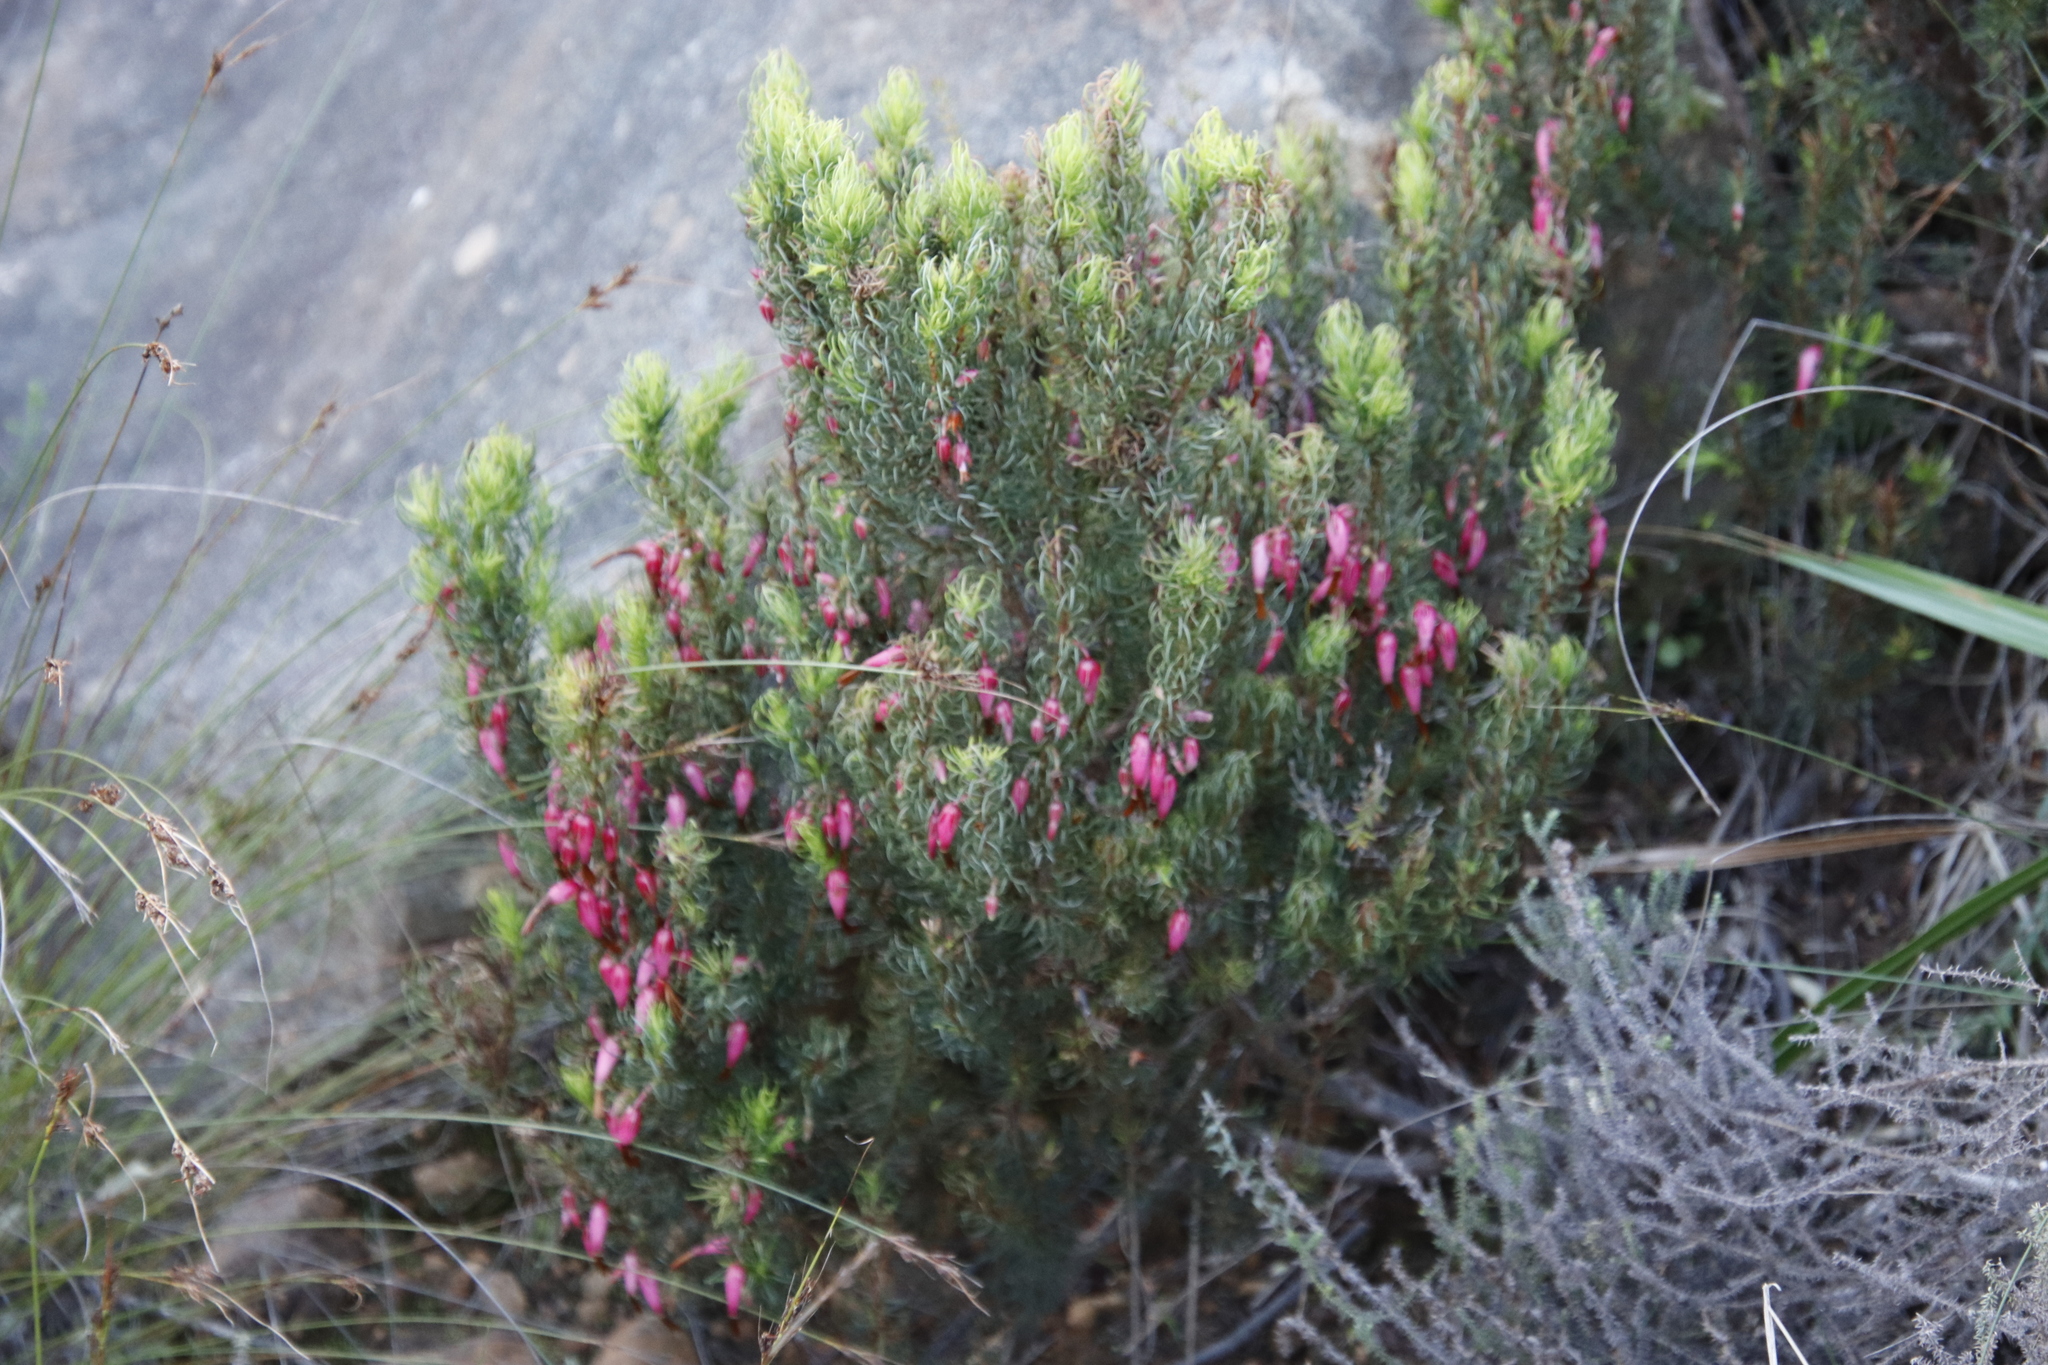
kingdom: Plantae
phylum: Tracheophyta
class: Magnoliopsida
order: Ericales
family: Ericaceae
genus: Erica
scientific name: Erica plukenetii
